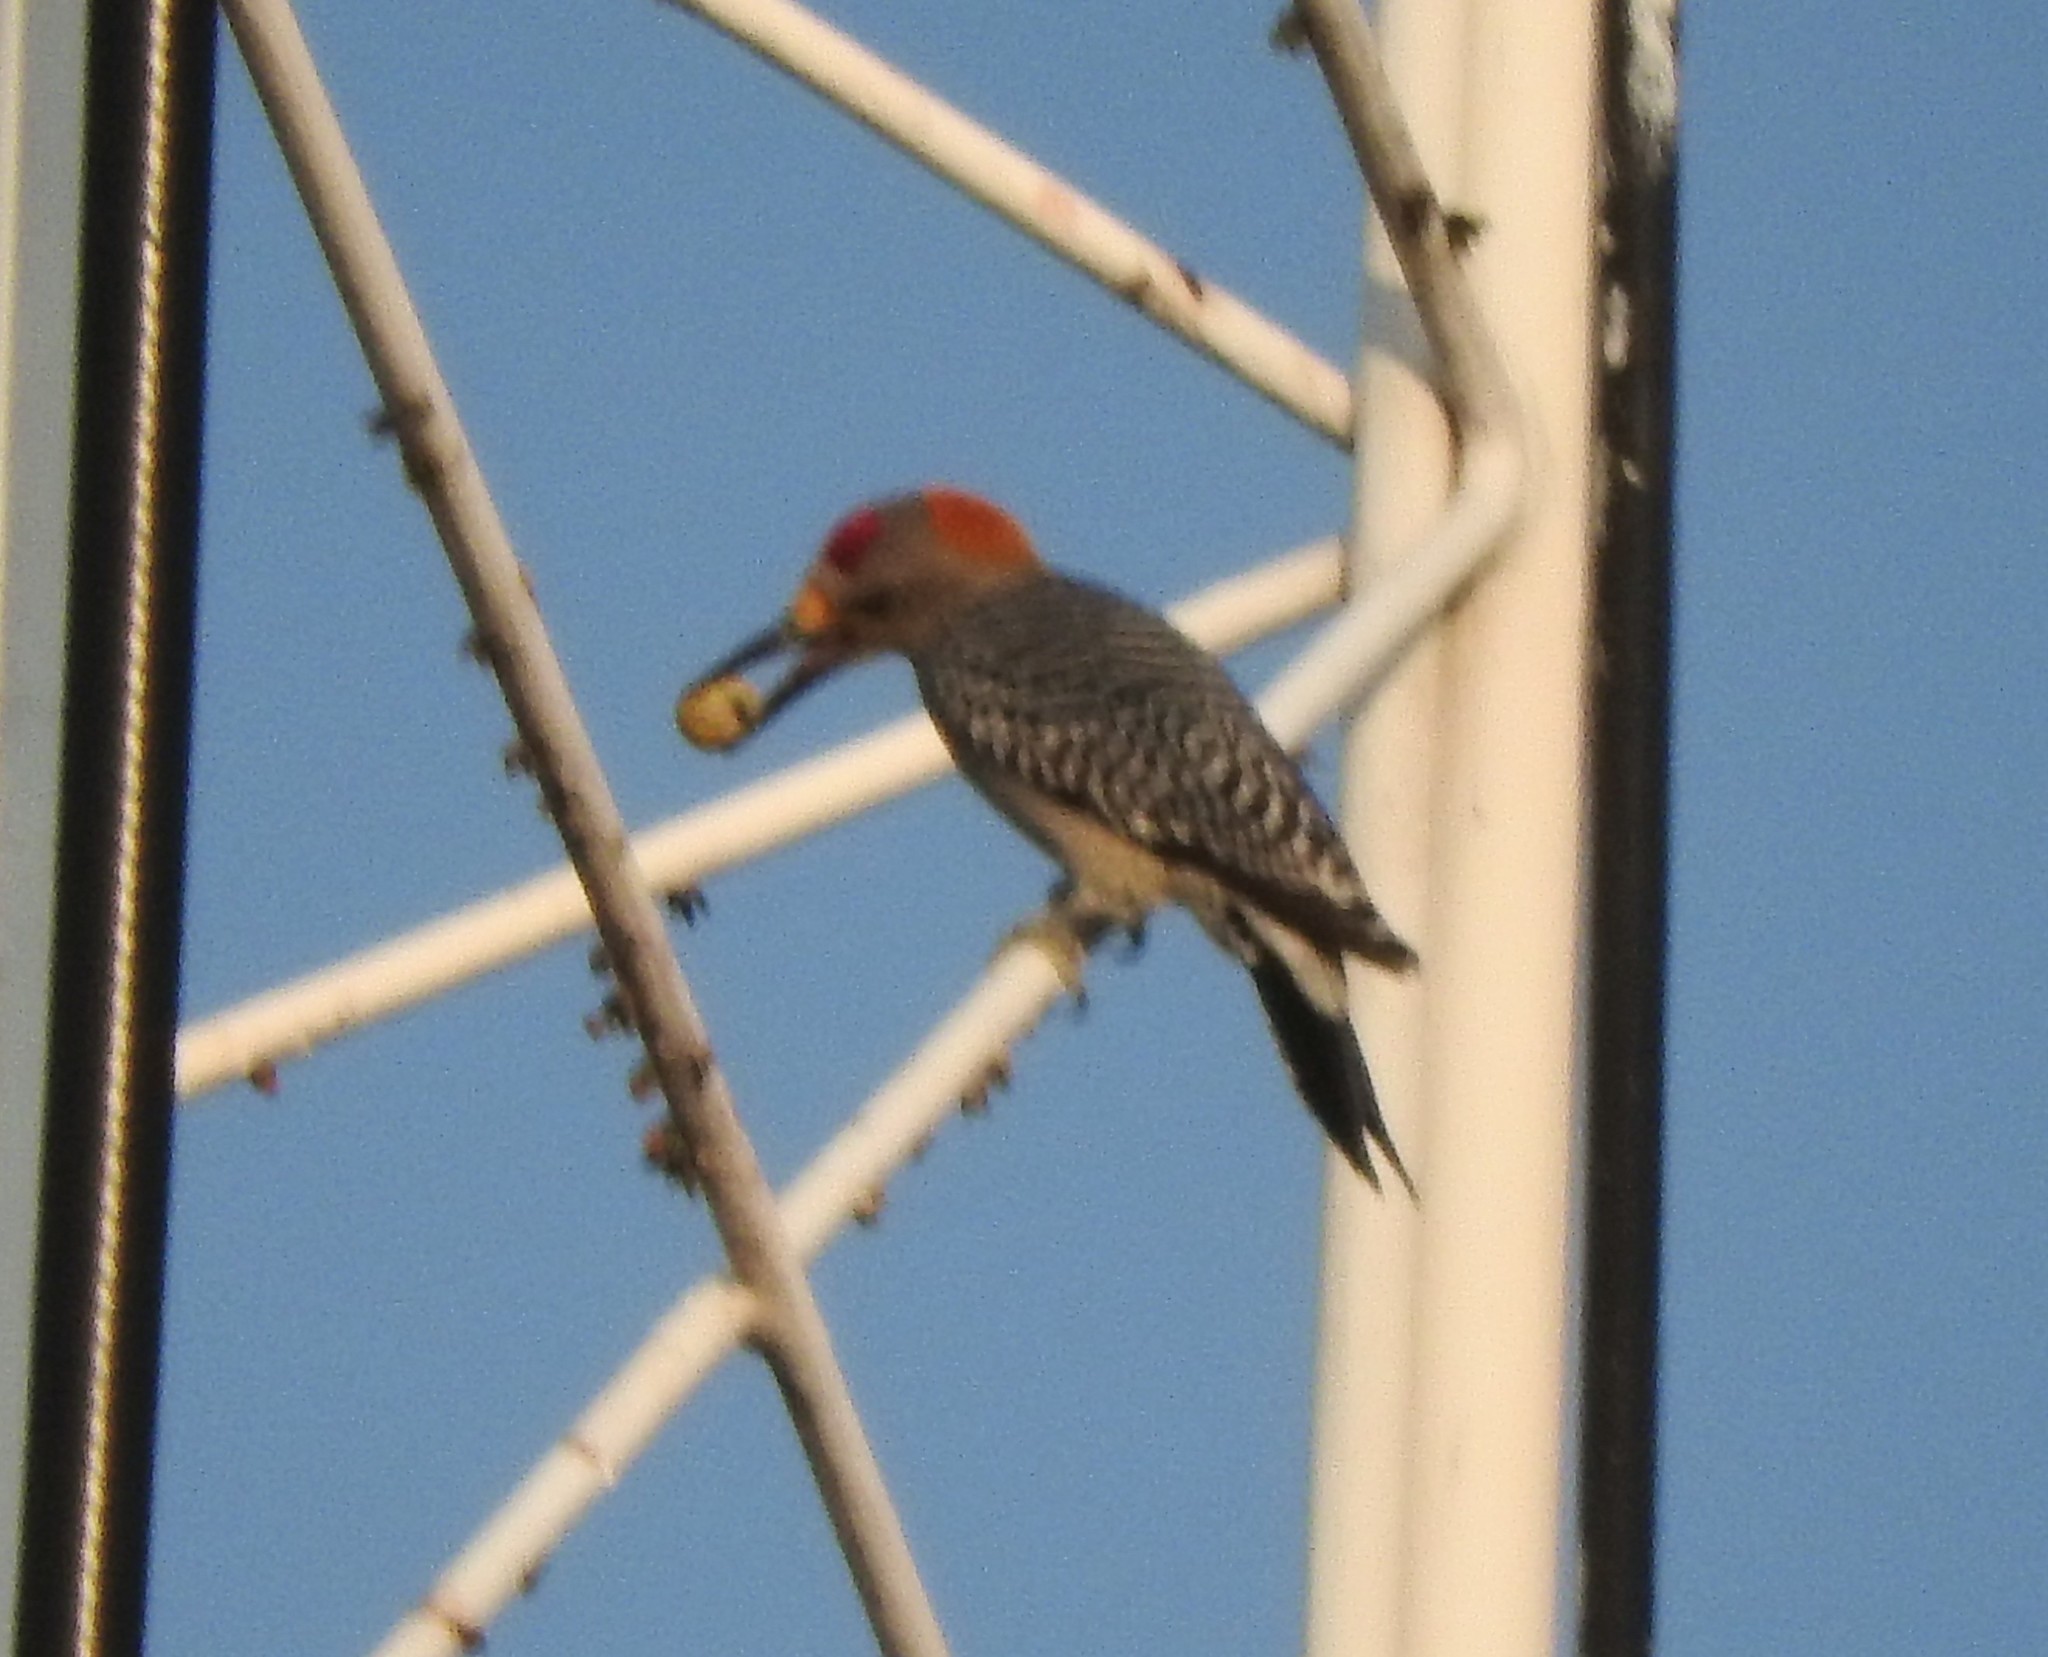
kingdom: Animalia
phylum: Chordata
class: Aves
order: Piciformes
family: Picidae
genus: Melanerpes
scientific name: Melanerpes aurifrons
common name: Golden-fronted woodpecker
